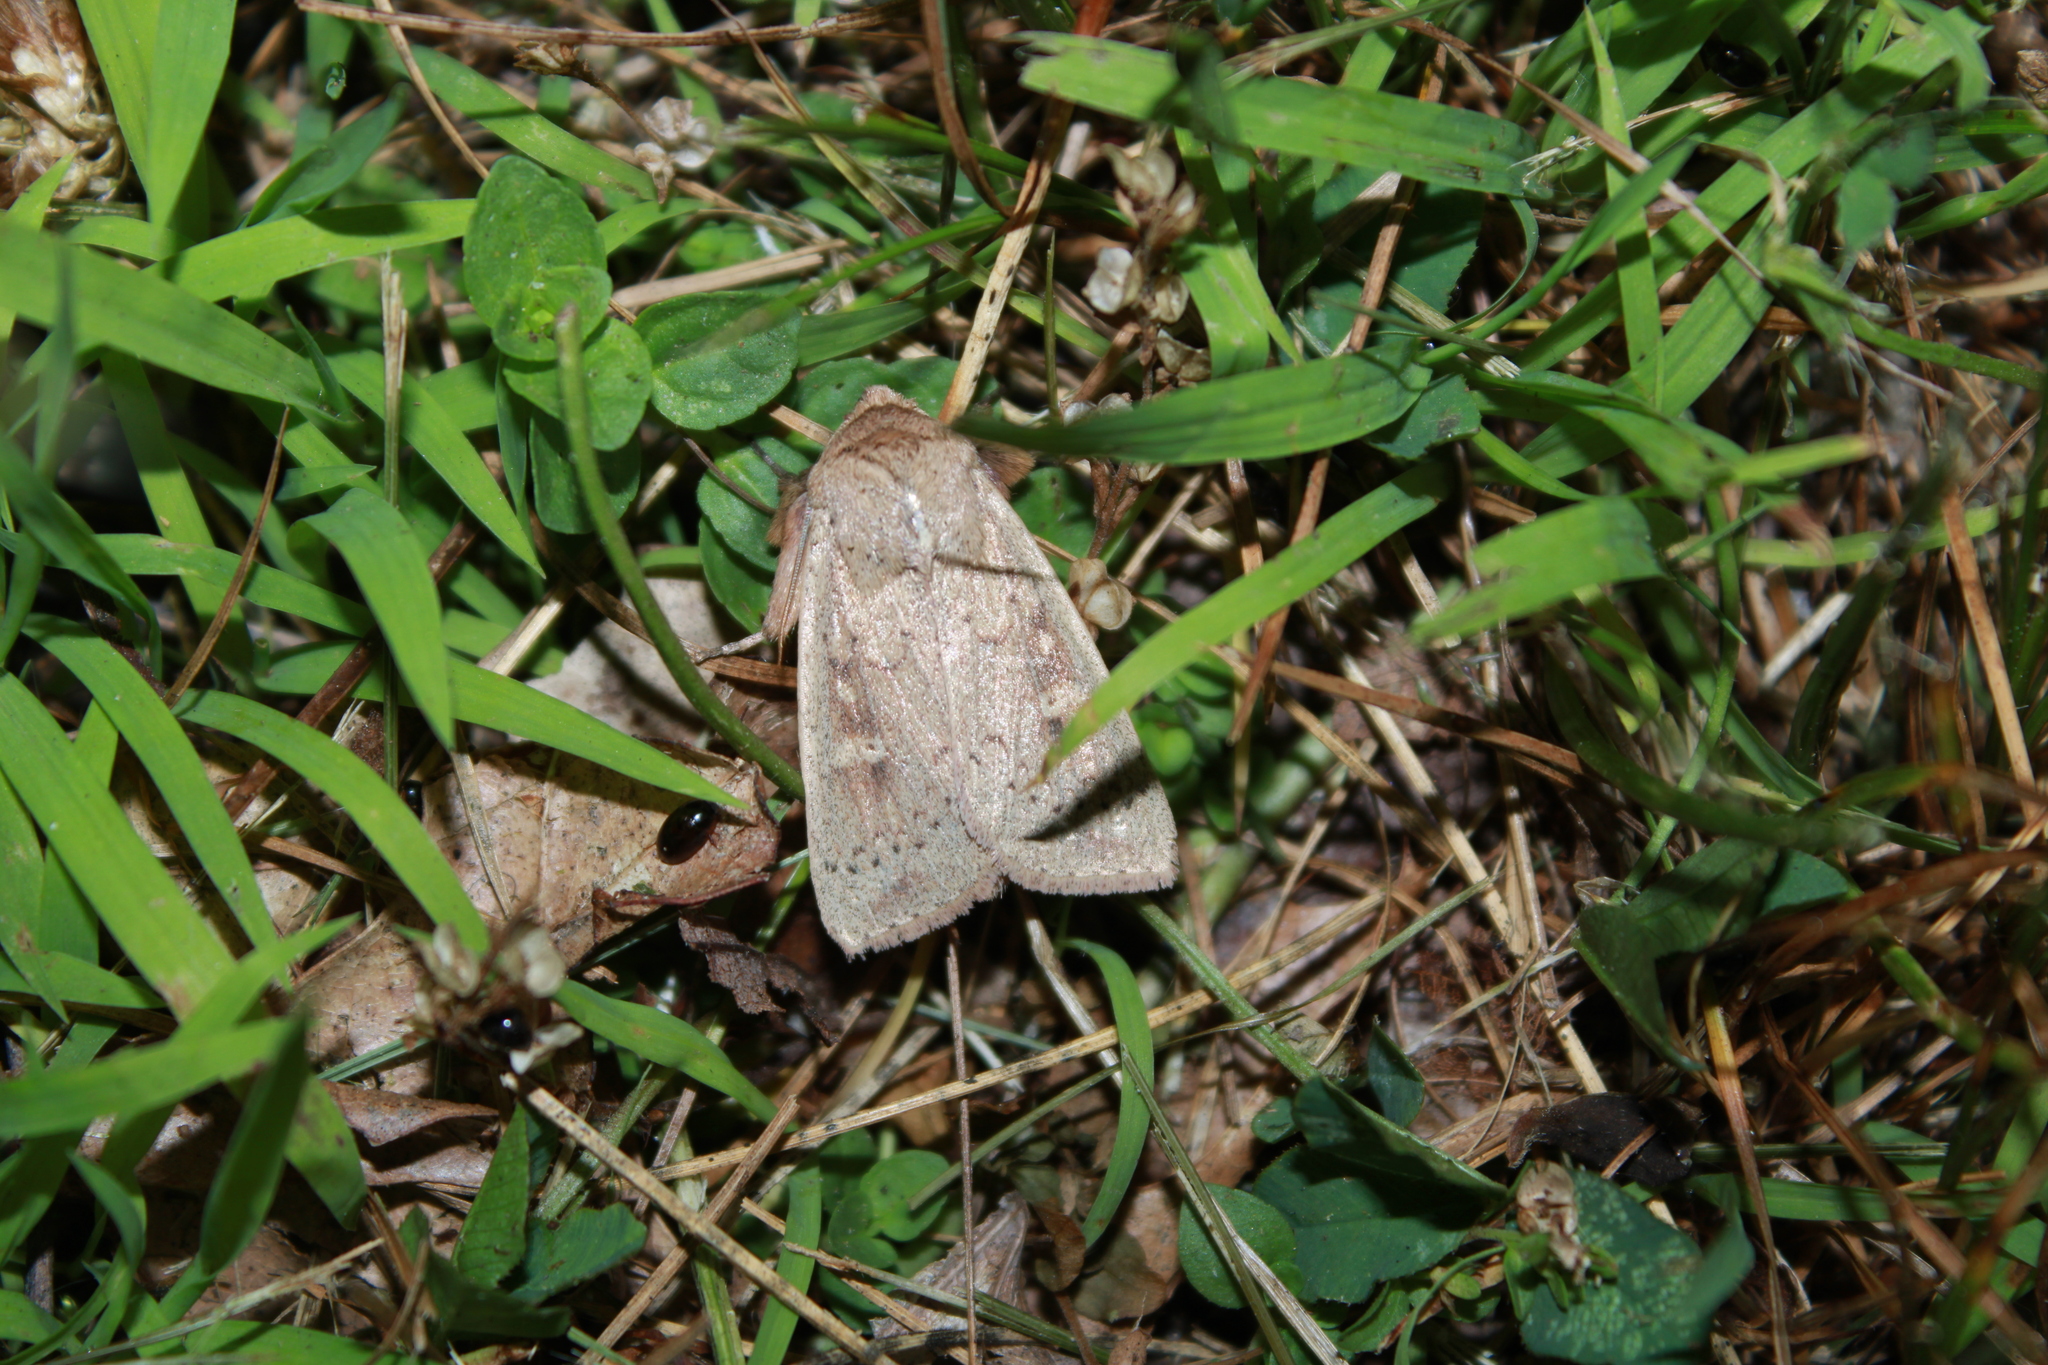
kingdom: Animalia
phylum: Arthropoda
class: Insecta
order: Lepidoptera
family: Noctuidae
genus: Leucania
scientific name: Leucania pseudargyria
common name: False wainscot
